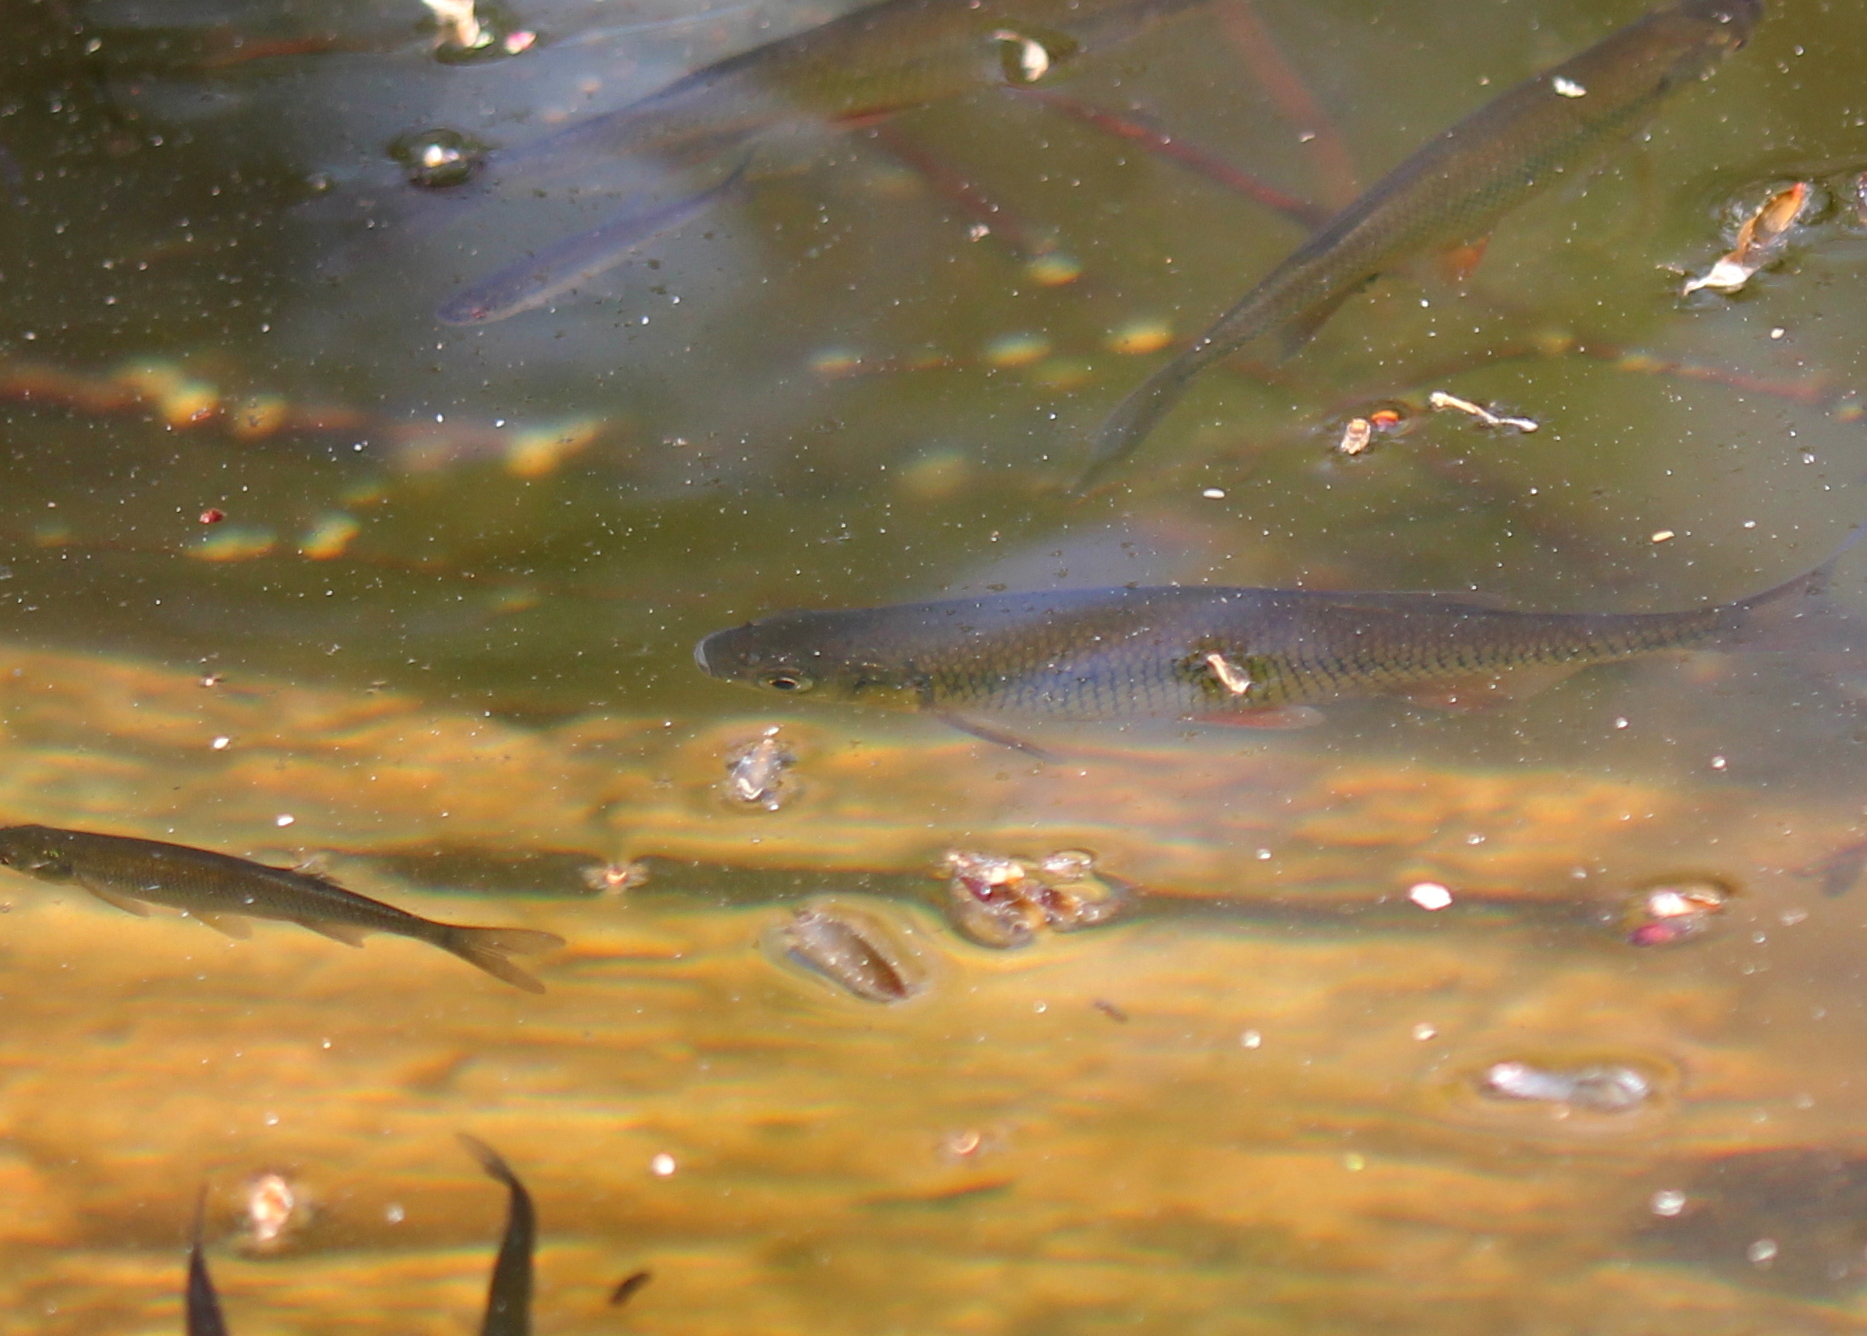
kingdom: Animalia
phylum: Chordata
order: Cypriniformes
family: Cyprinidae
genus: Notemigonus
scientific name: Notemigonus crysoleucas
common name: Golden shiner
